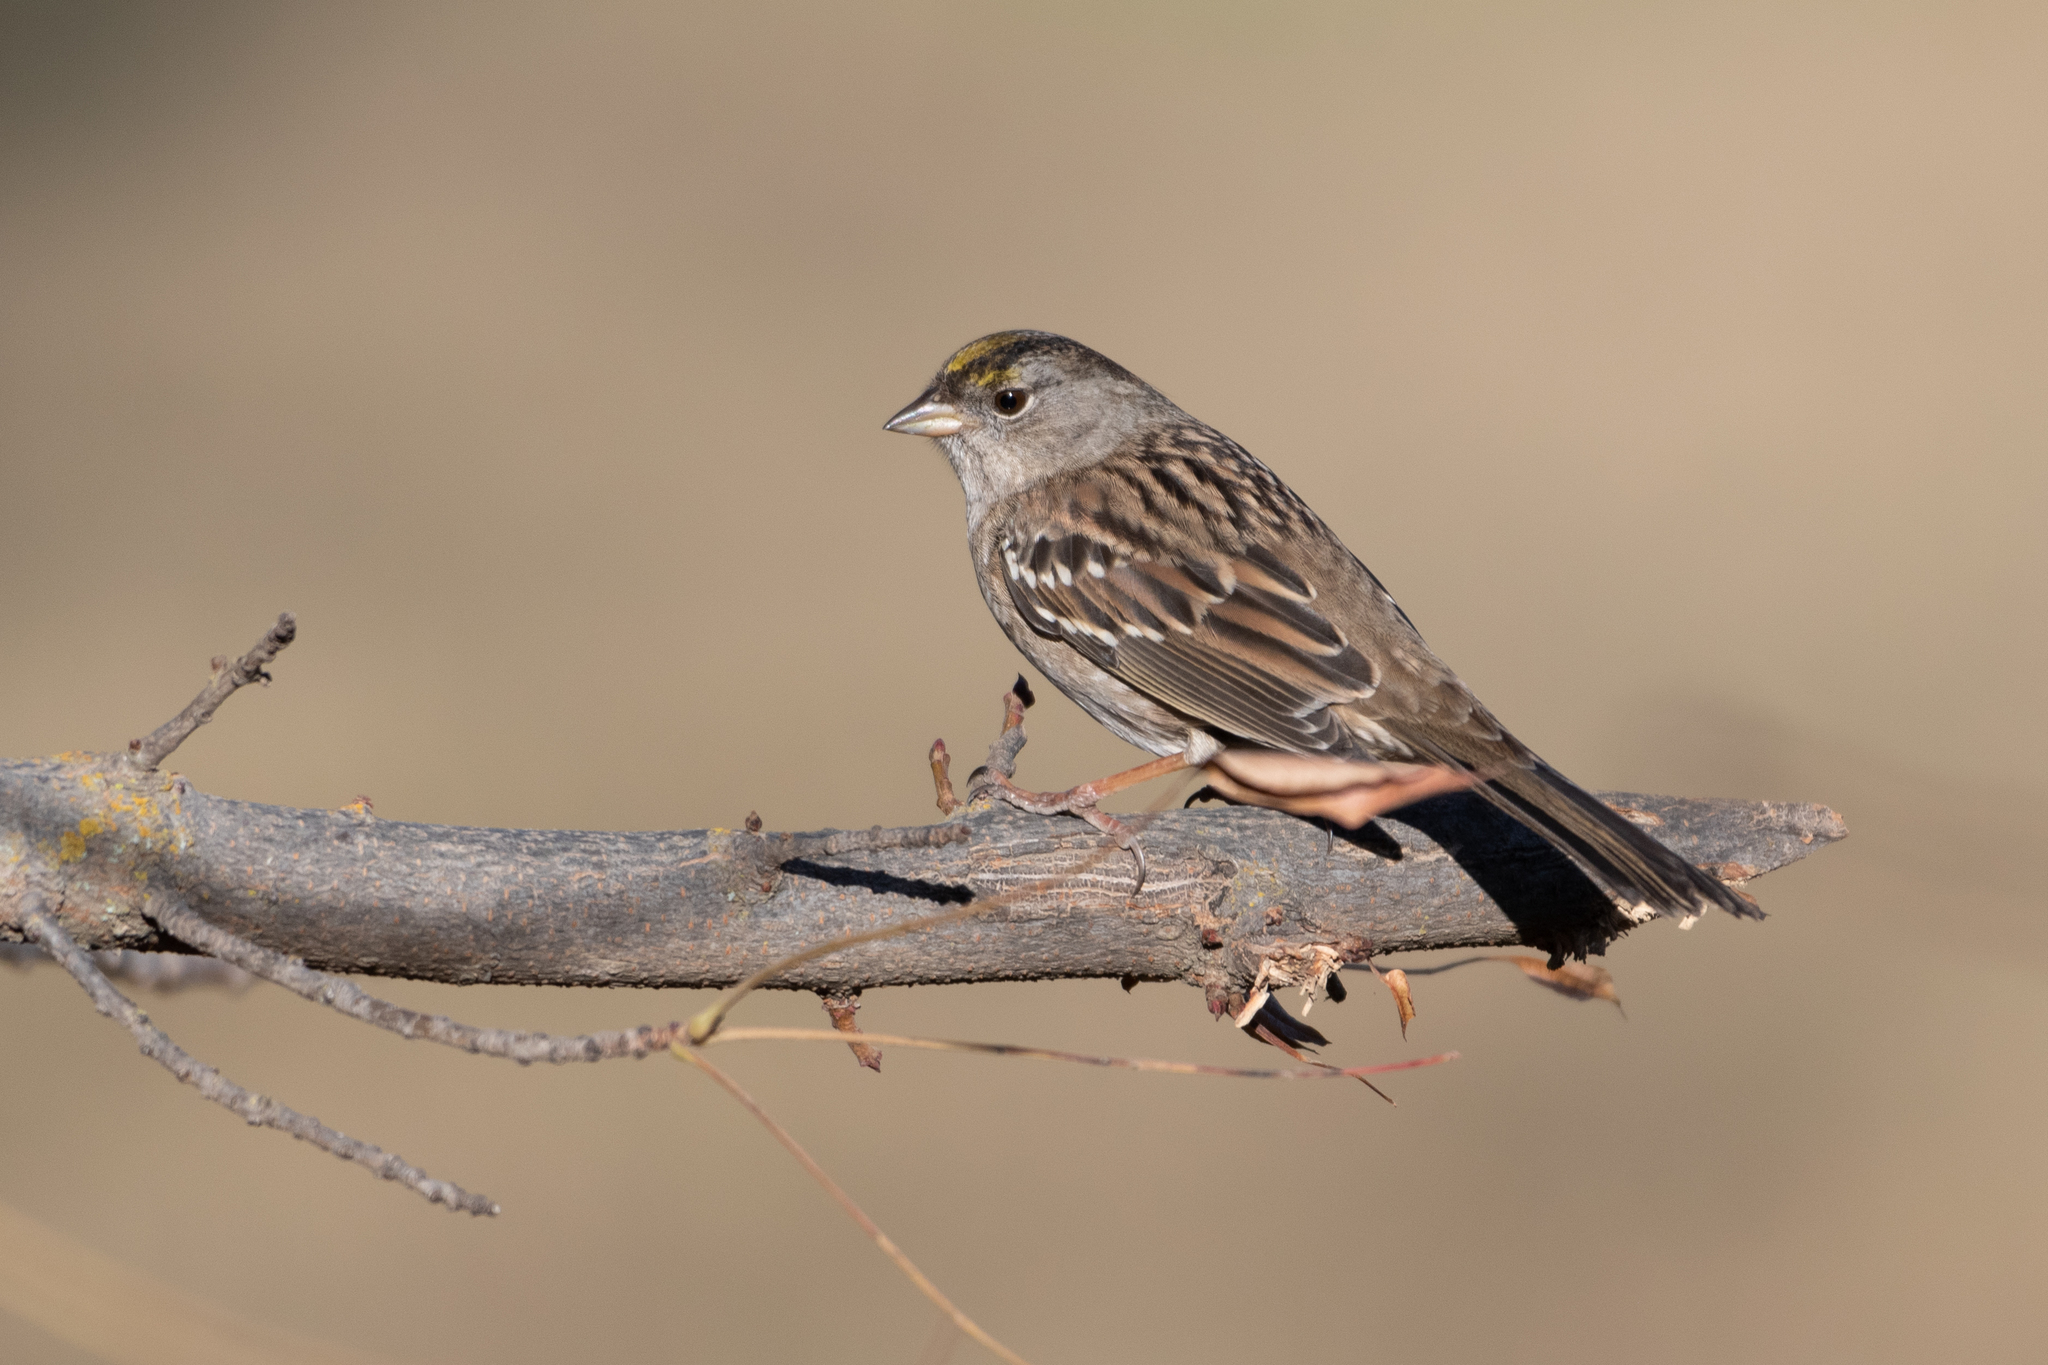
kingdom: Animalia
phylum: Chordata
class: Aves
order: Passeriformes
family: Passerellidae
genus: Zonotrichia
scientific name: Zonotrichia atricapilla
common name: Golden-crowned sparrow
